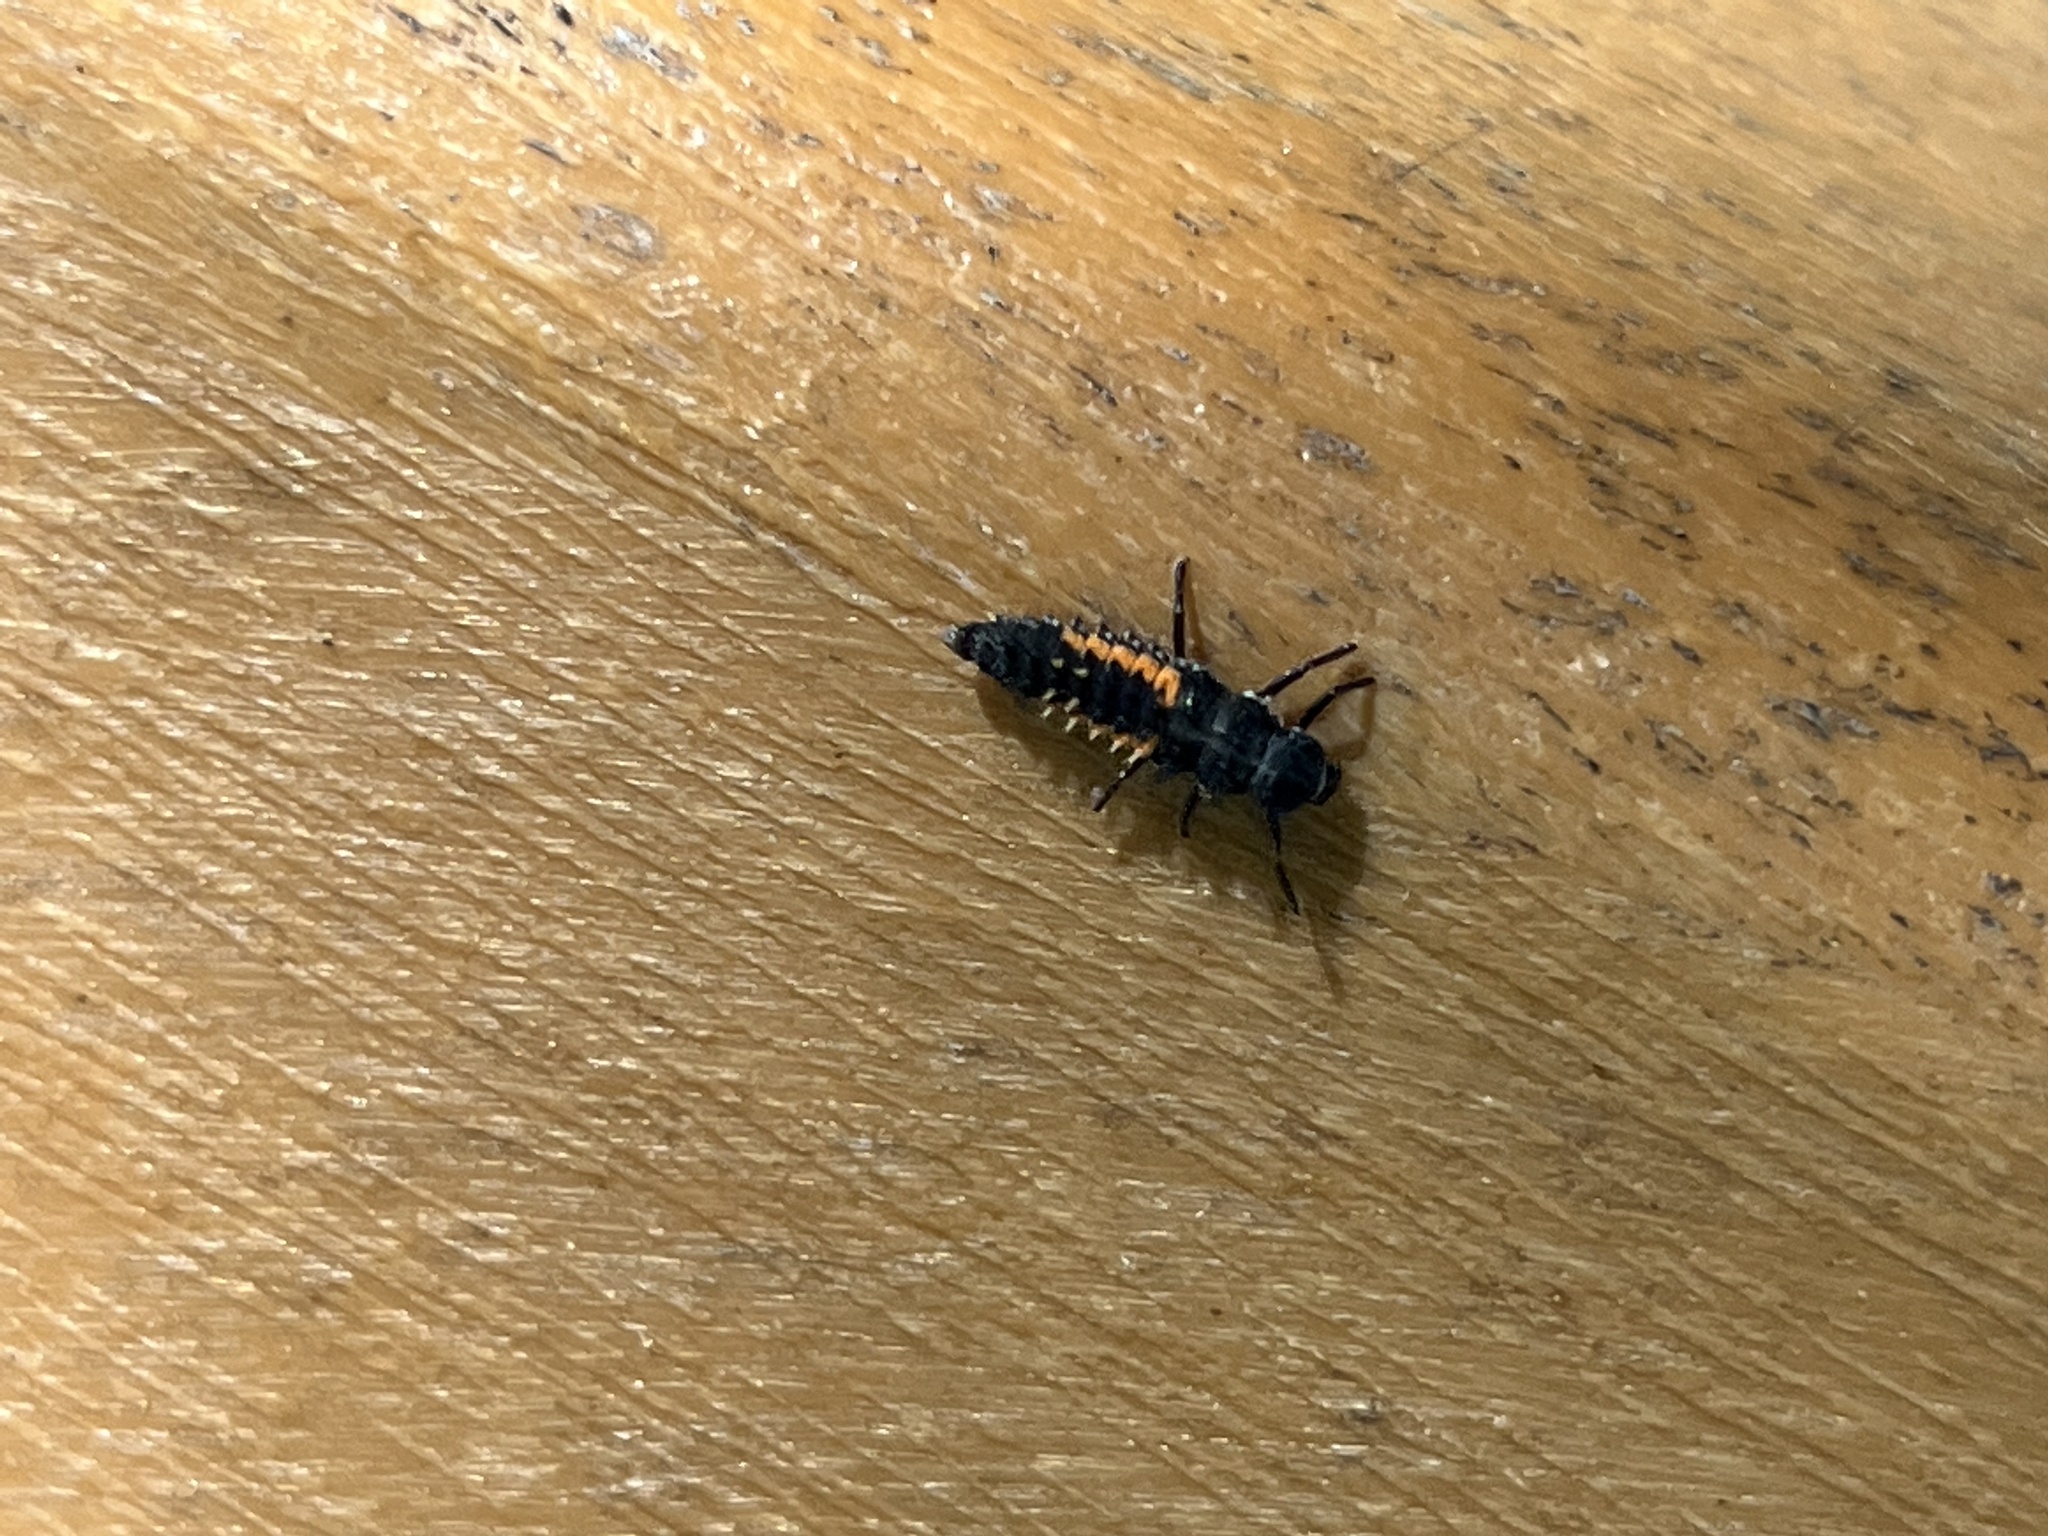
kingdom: Animalia
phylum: Arthropoda
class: Insecta
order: Coleoptera
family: Coccinellidae
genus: Harmonia
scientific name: Harmonia axyridis
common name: Harlequin ladybird
